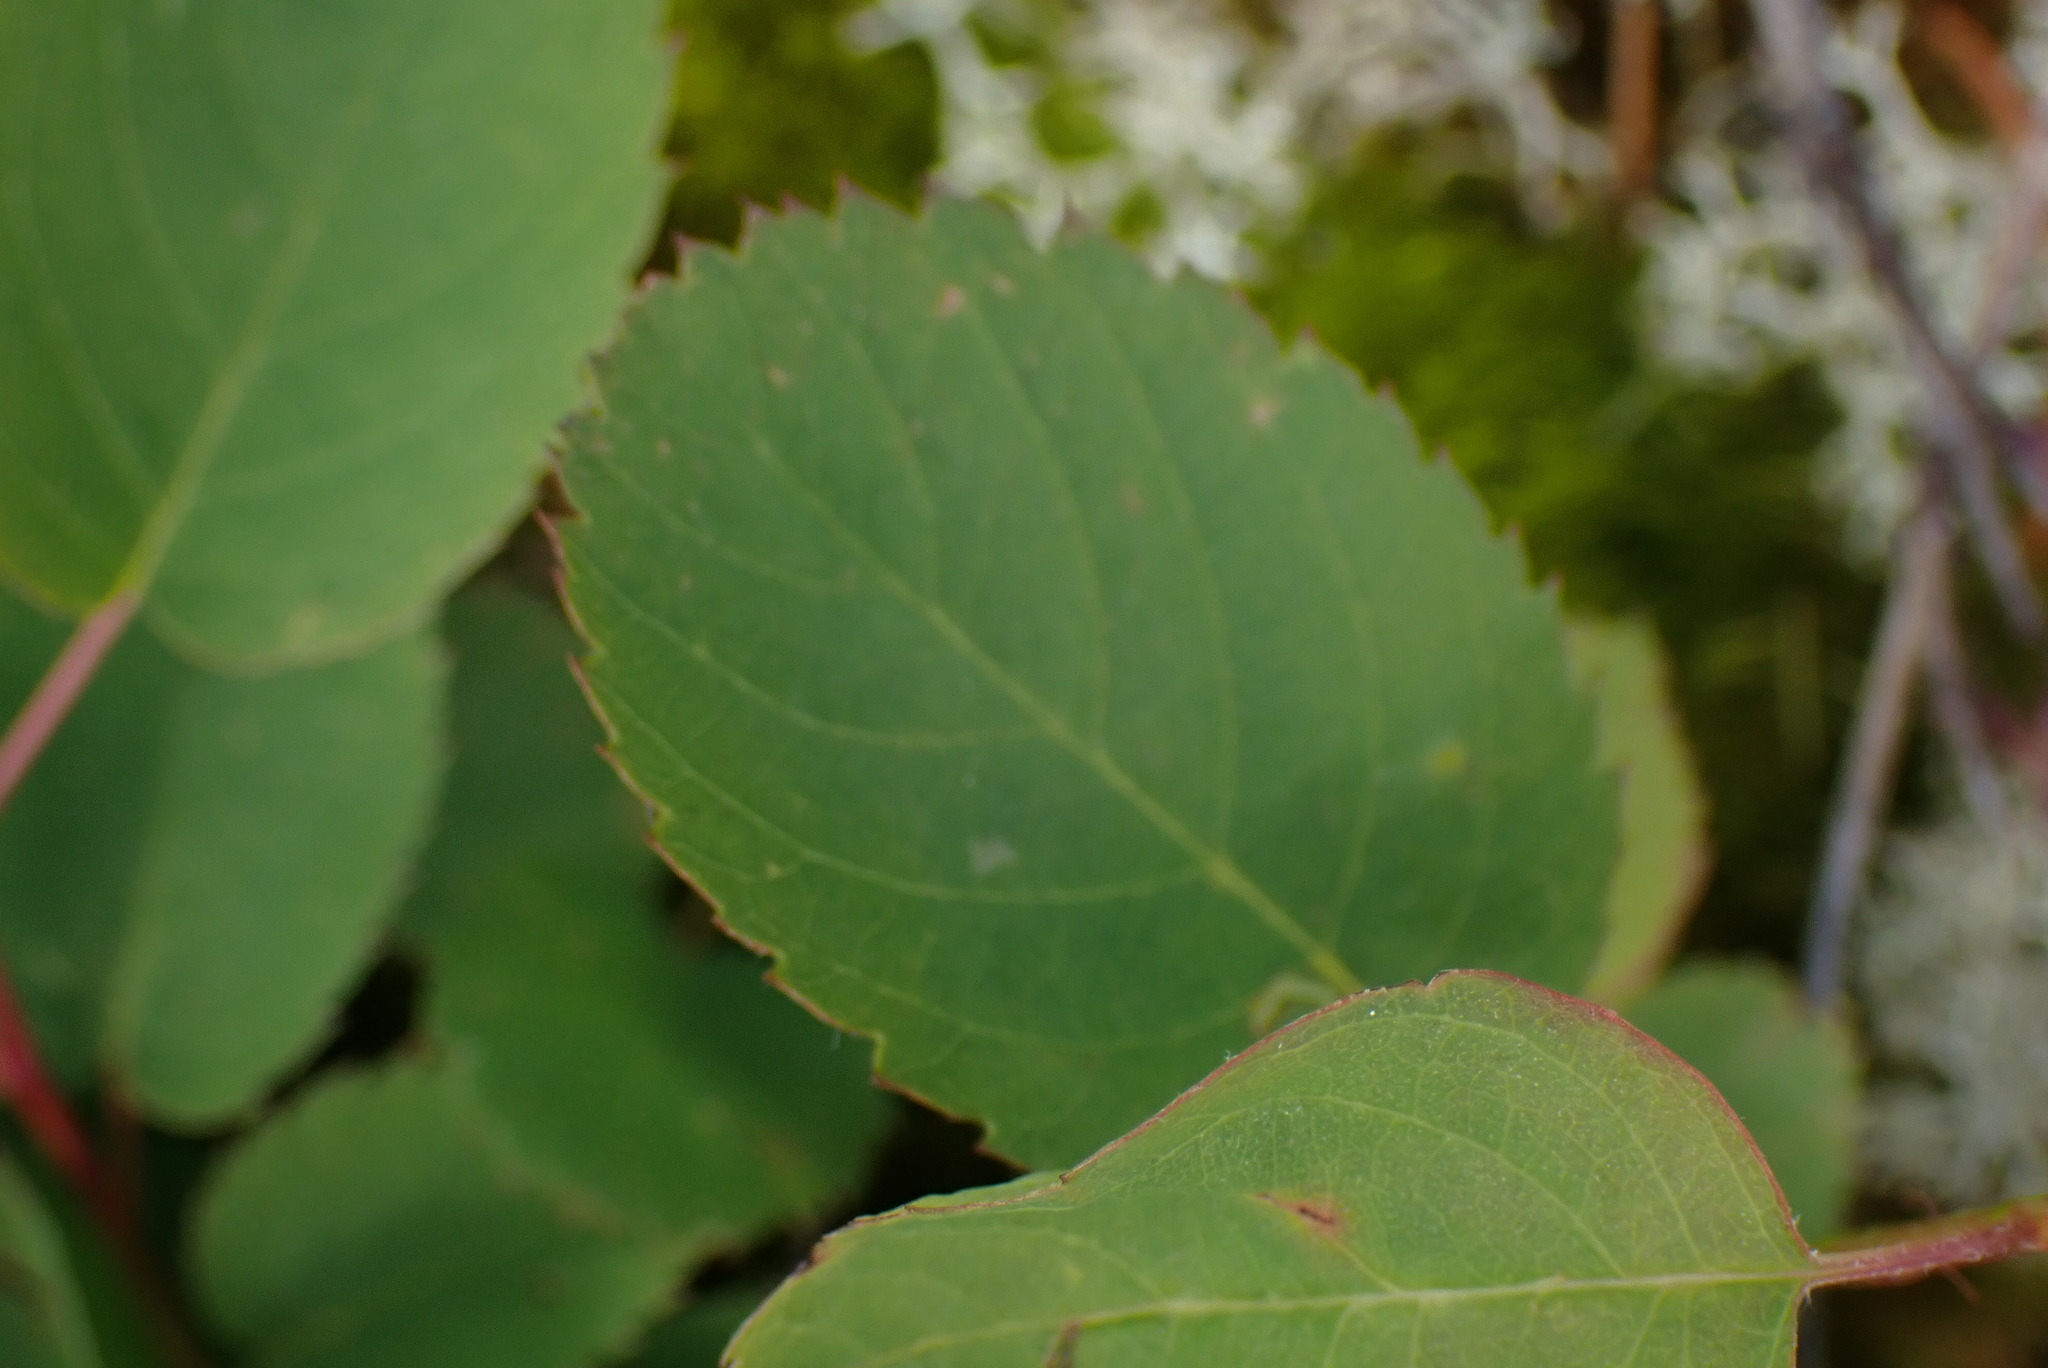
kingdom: Plantae
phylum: Tracheophyta
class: Magnoliopsida
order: Rosales
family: Rosaceae
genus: Amelanchier
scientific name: Amelanchier alnifolia
